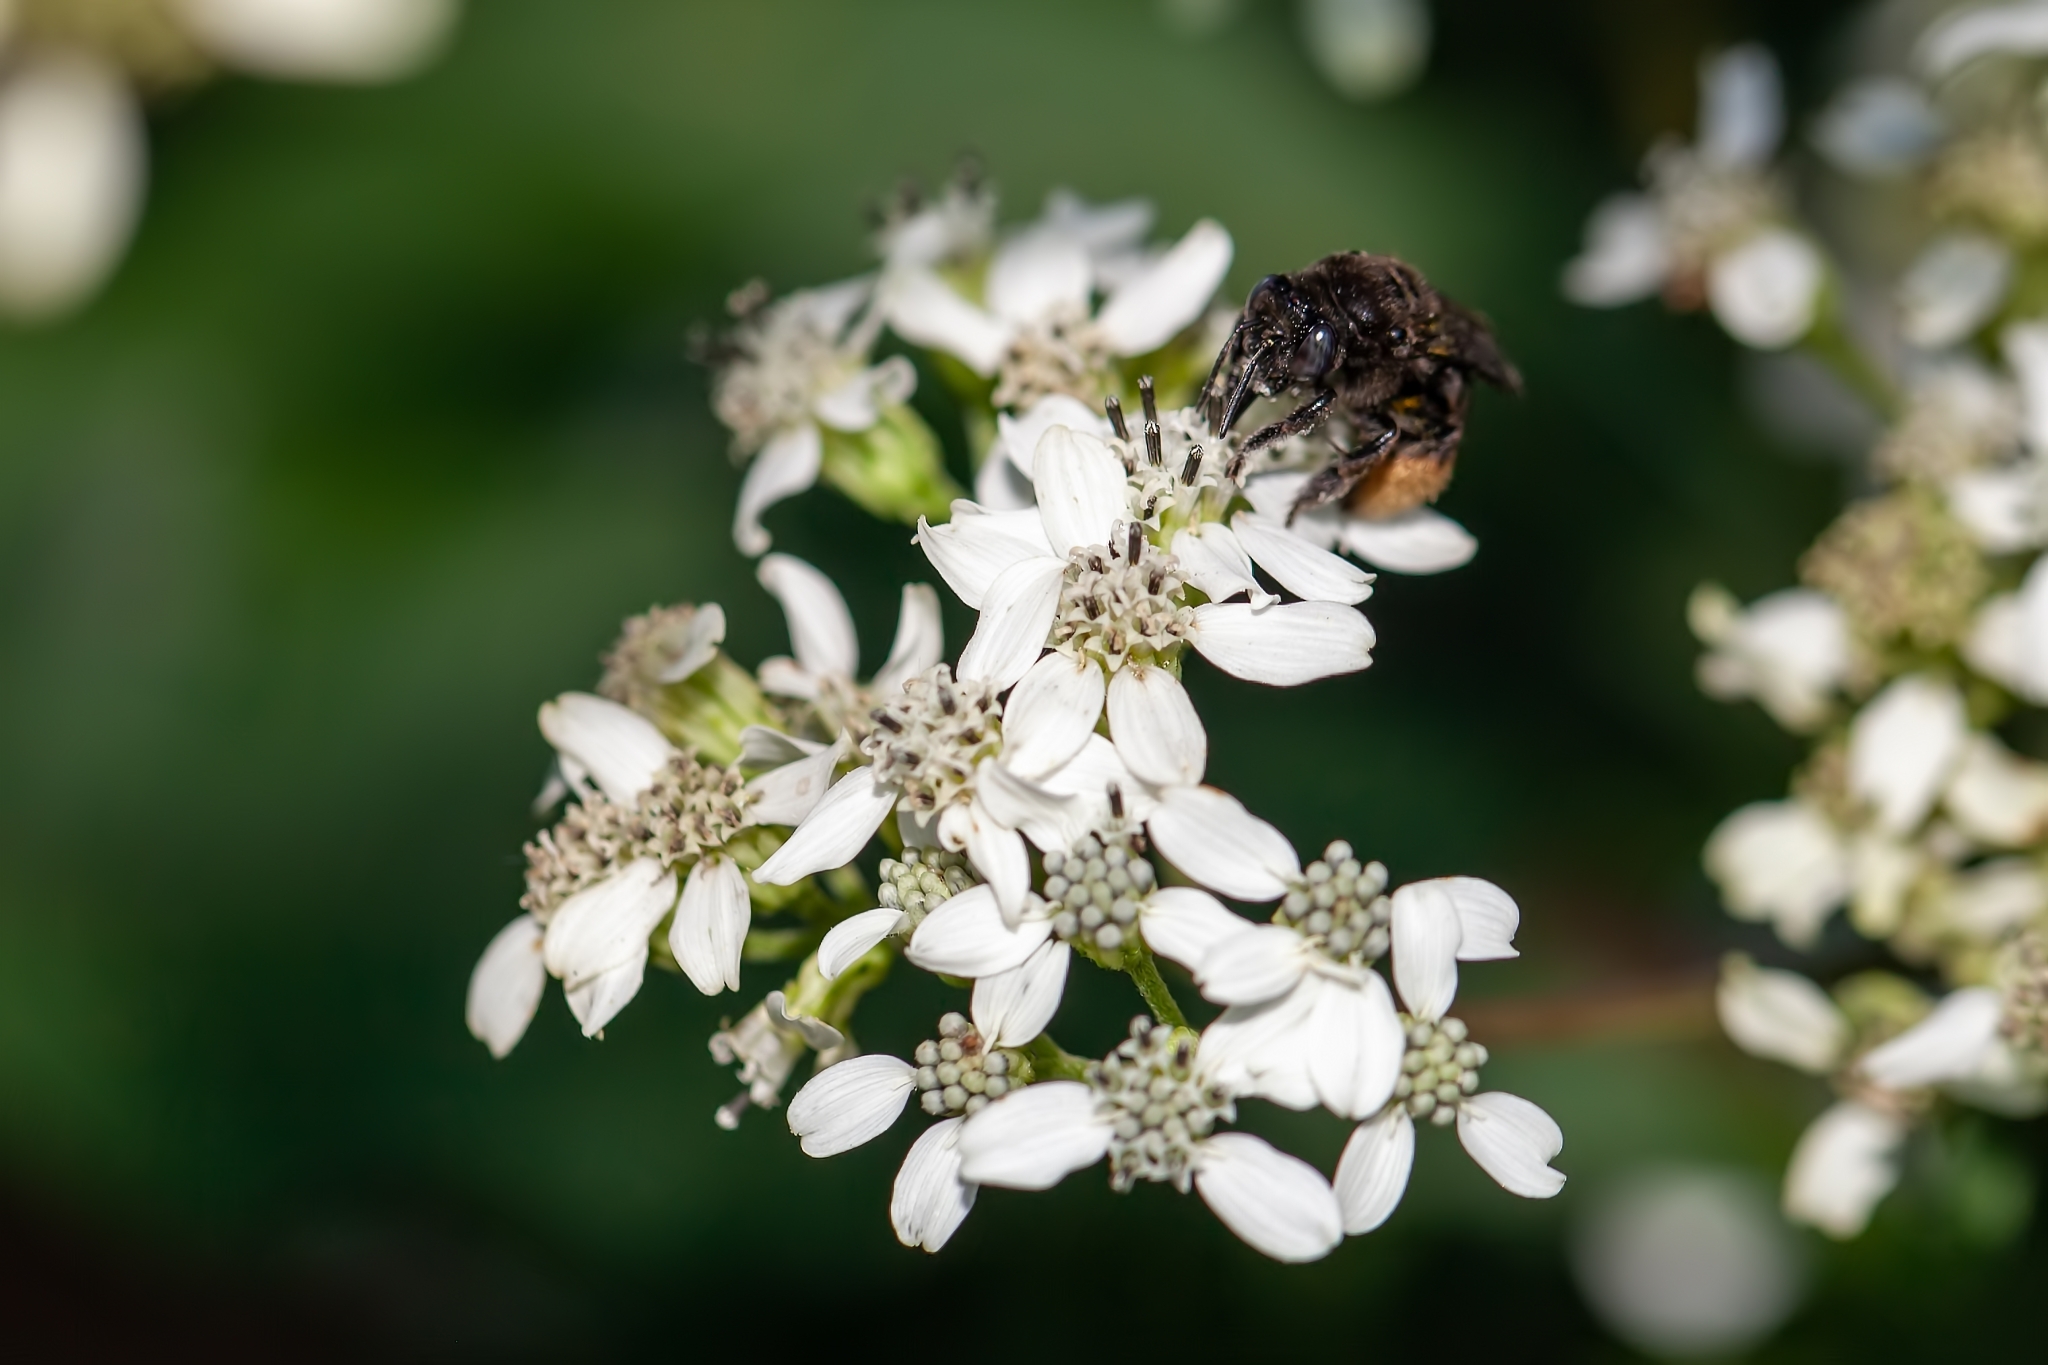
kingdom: Animalia
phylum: Arthropoda
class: Insecta
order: Hymenoptera
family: Apidae
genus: Melissodes
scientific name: Melissodes bimaculatus
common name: Two-spotted long-horned bee
